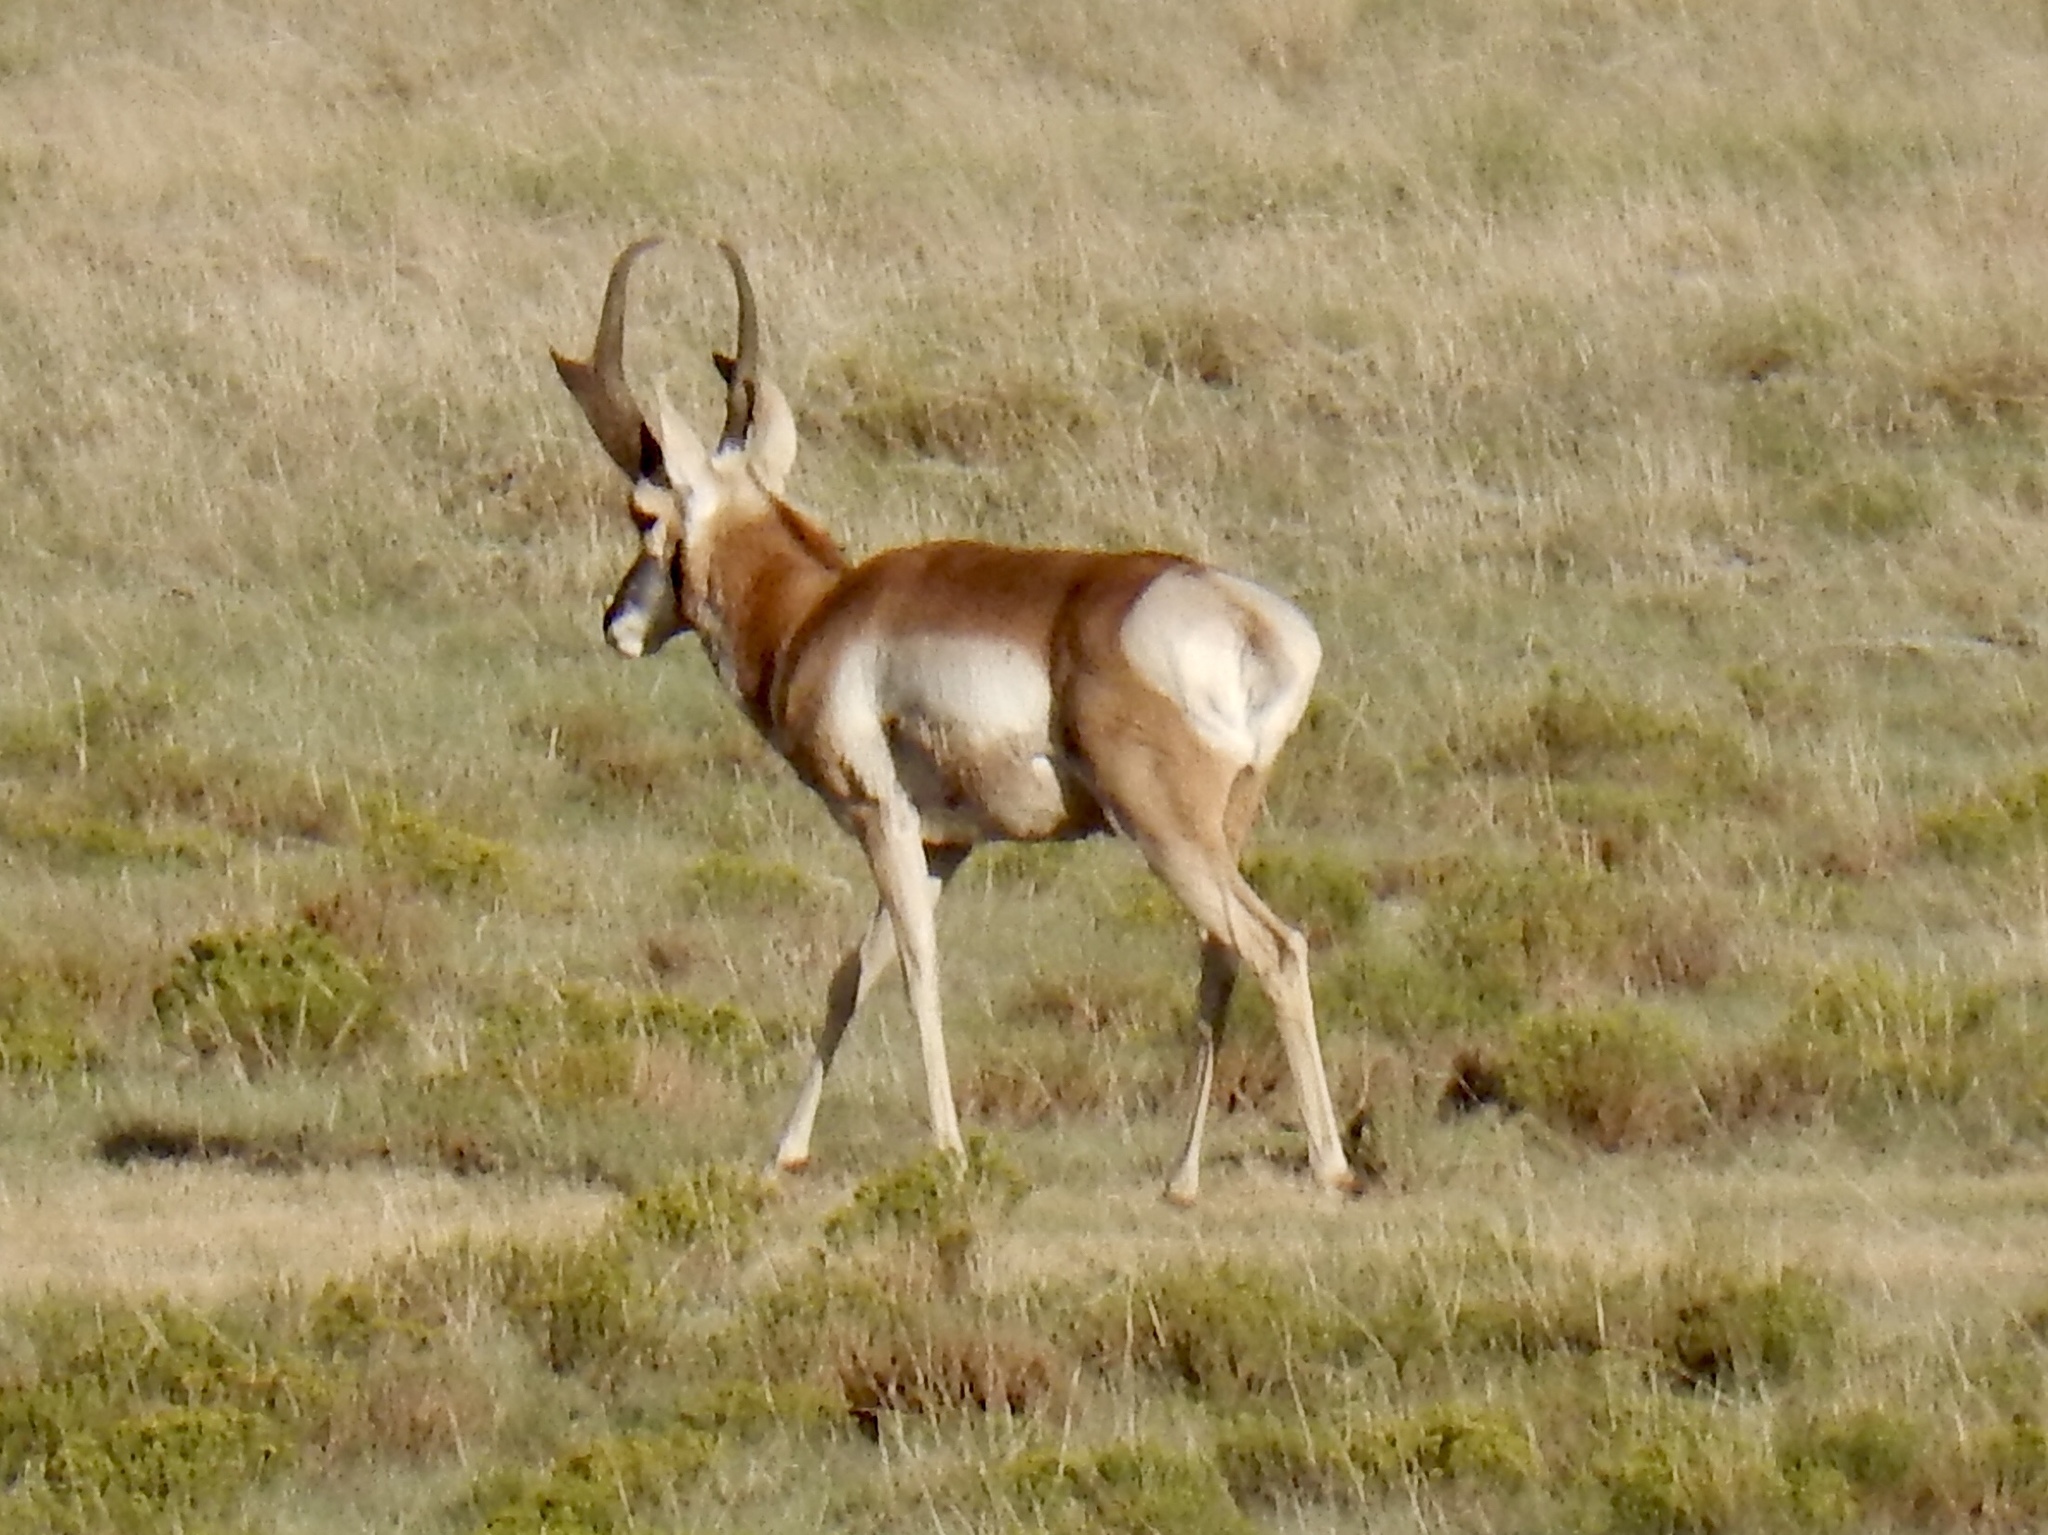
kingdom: Animalia
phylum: Chordata
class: Mammalia
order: Artiodactyla
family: Antilocapridae
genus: Antilocapra
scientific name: Antilocapra americana
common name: Pronghorn
